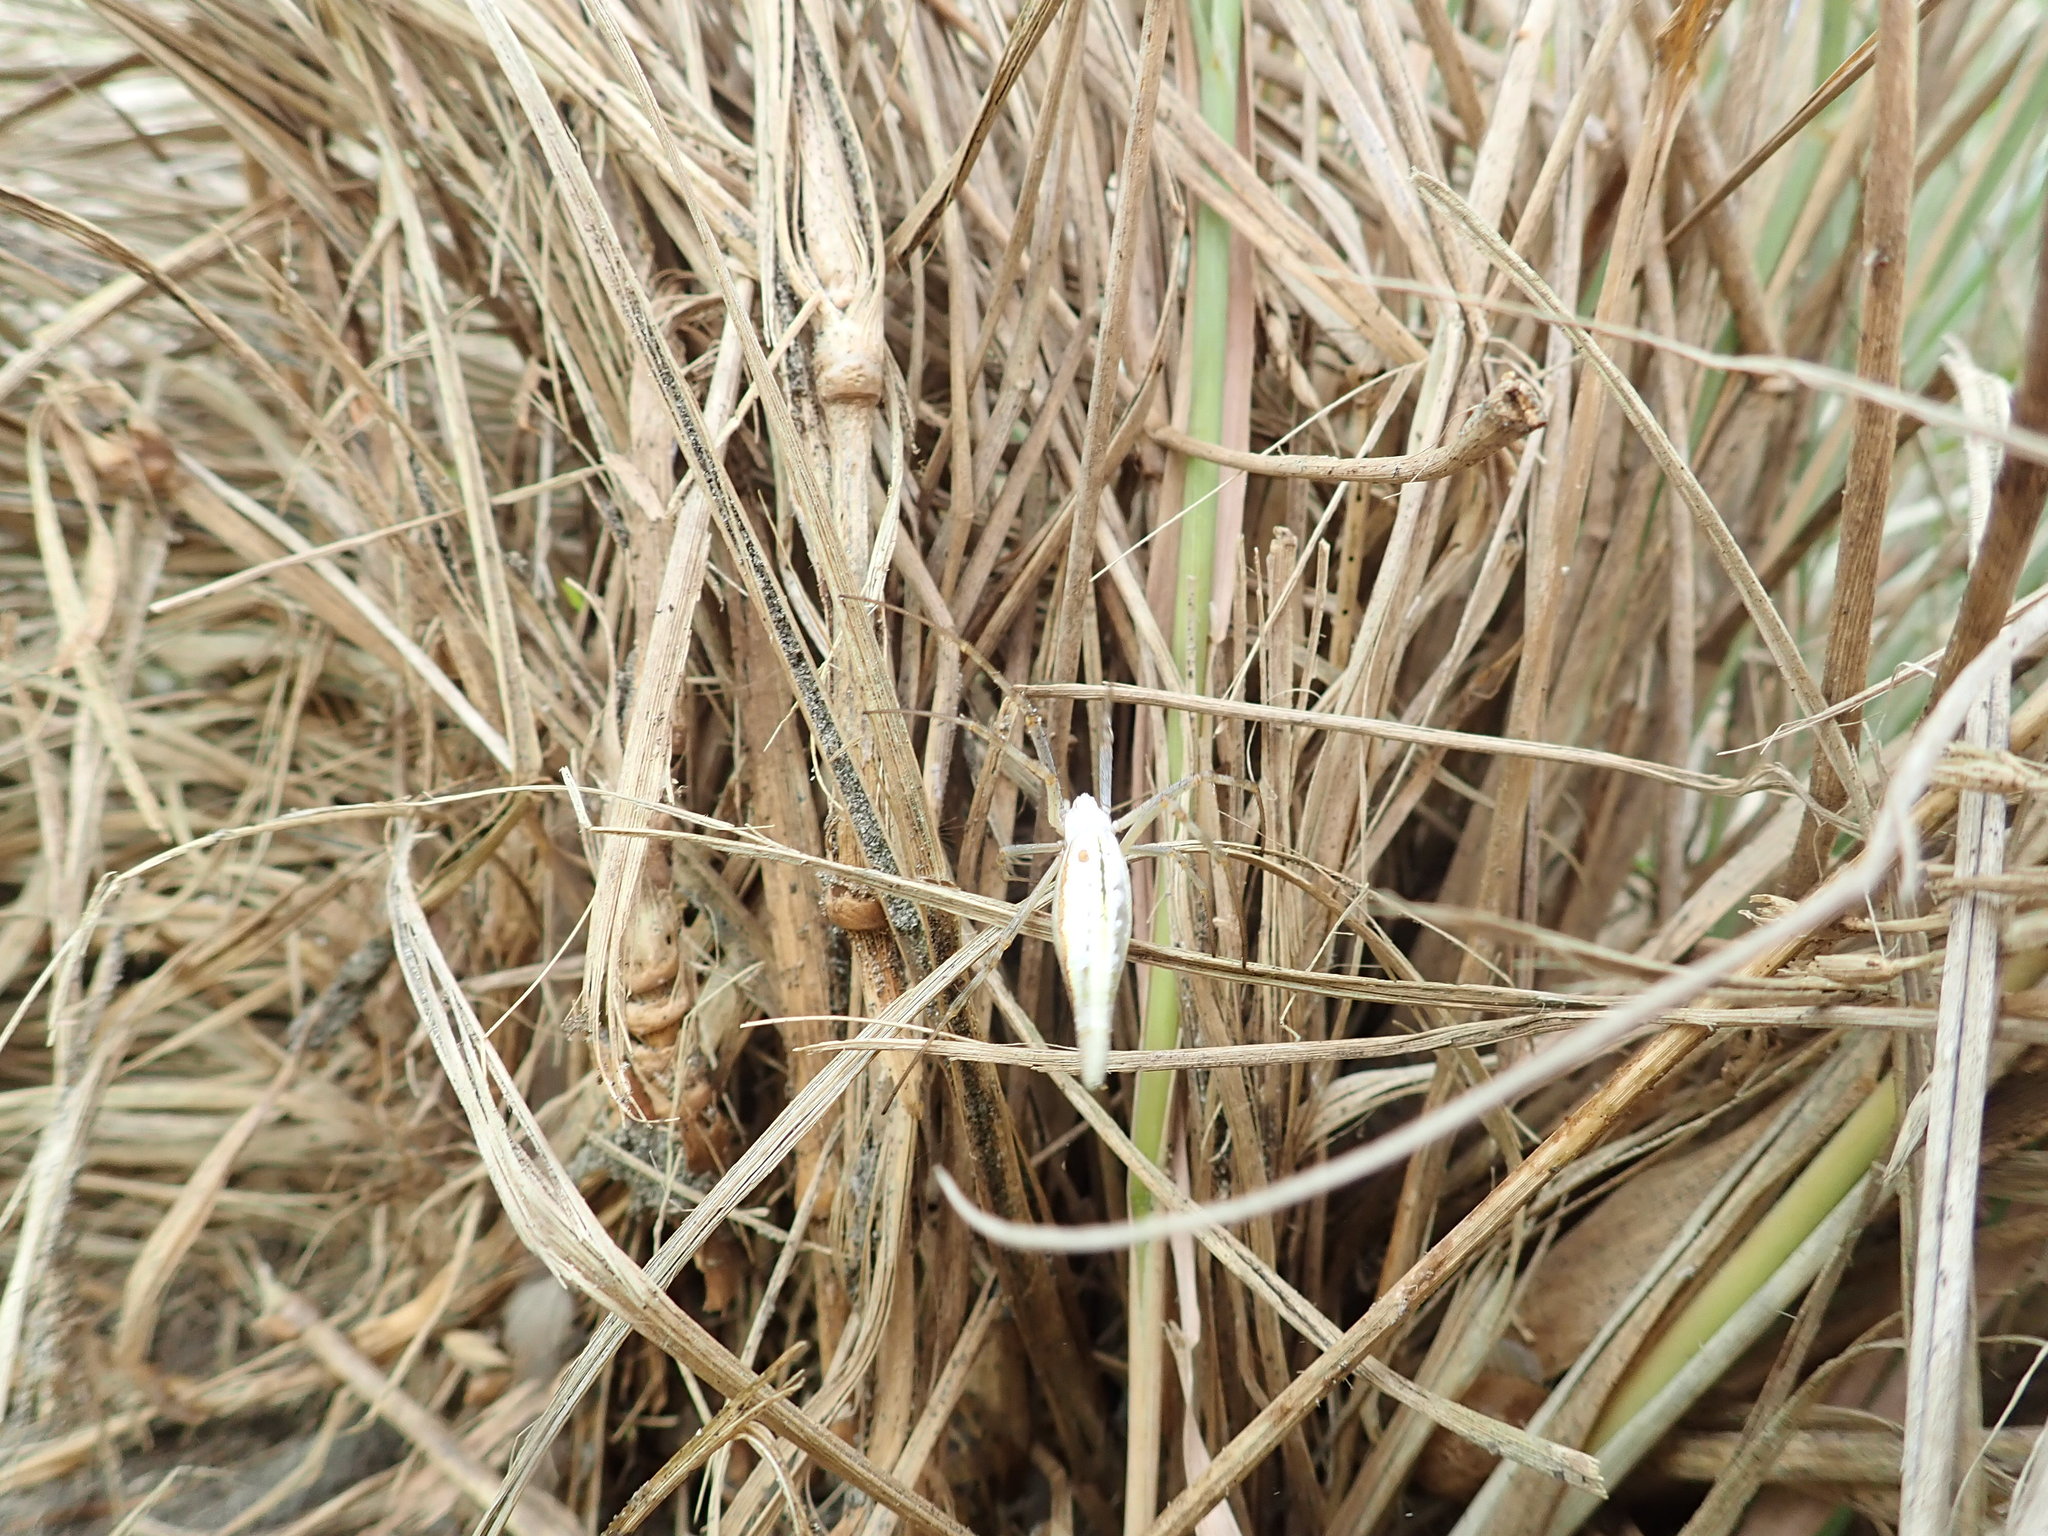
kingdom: Animalia
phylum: Arthropoda
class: Arachnida
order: Araneae
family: Araneidae
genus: Argiope
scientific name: Argiope protensa
